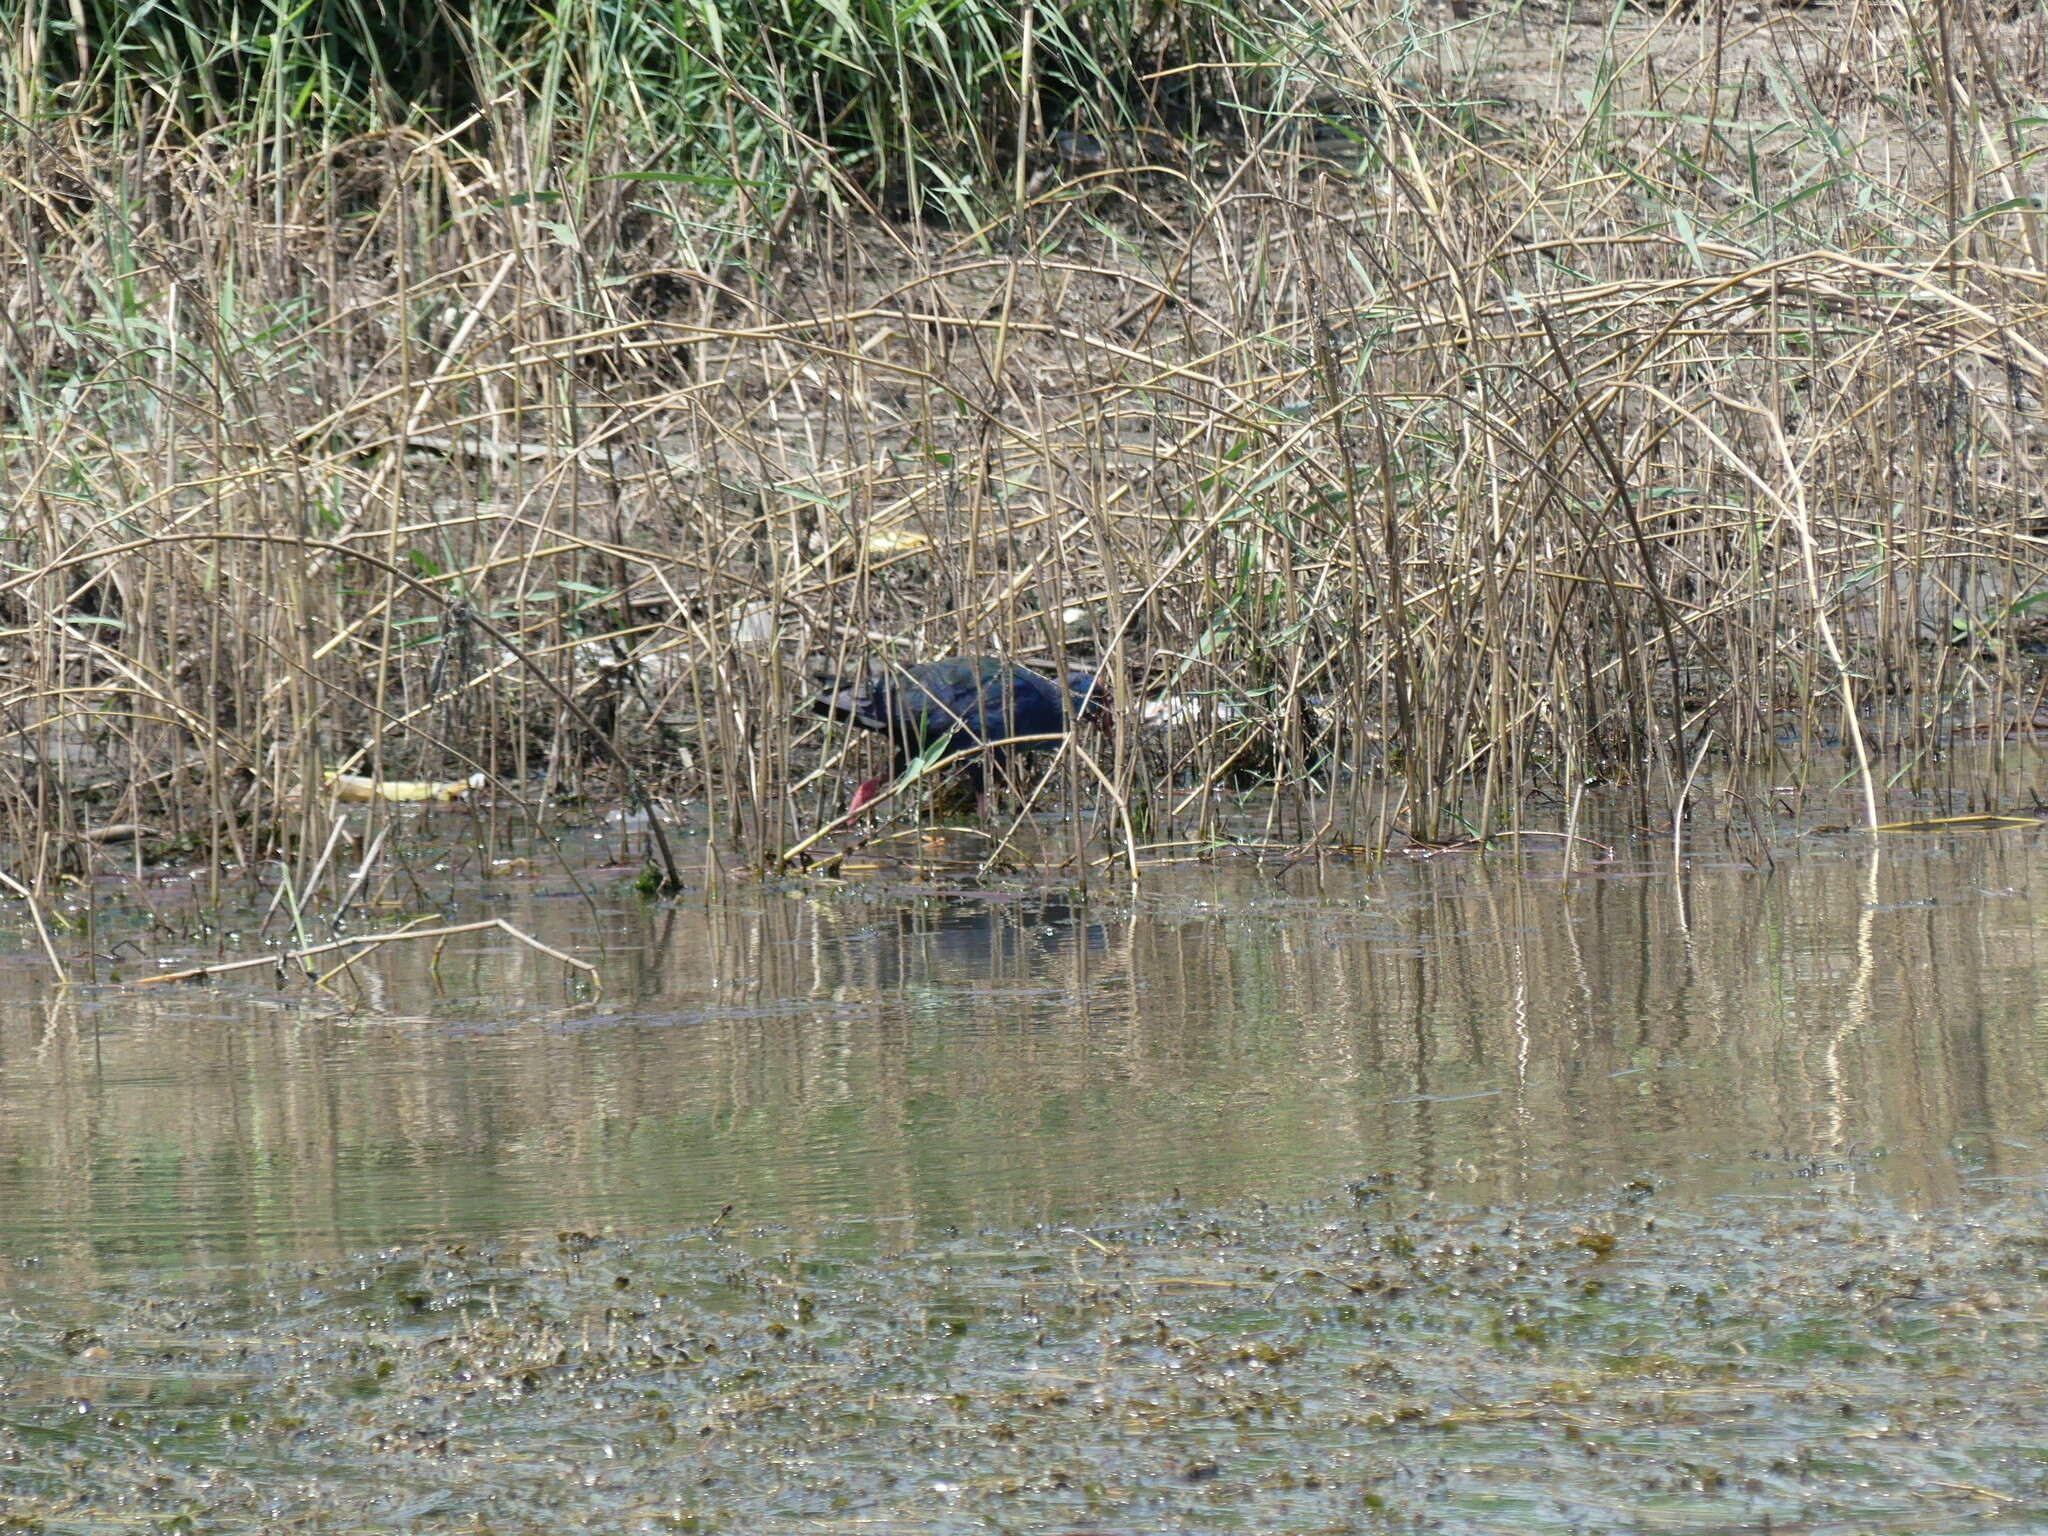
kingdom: Animalia
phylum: Chordata
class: Aves
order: Gruiformes
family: Rallidae
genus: Porphyrio
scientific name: Porphyrio porphyrio
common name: Purple swamphen
